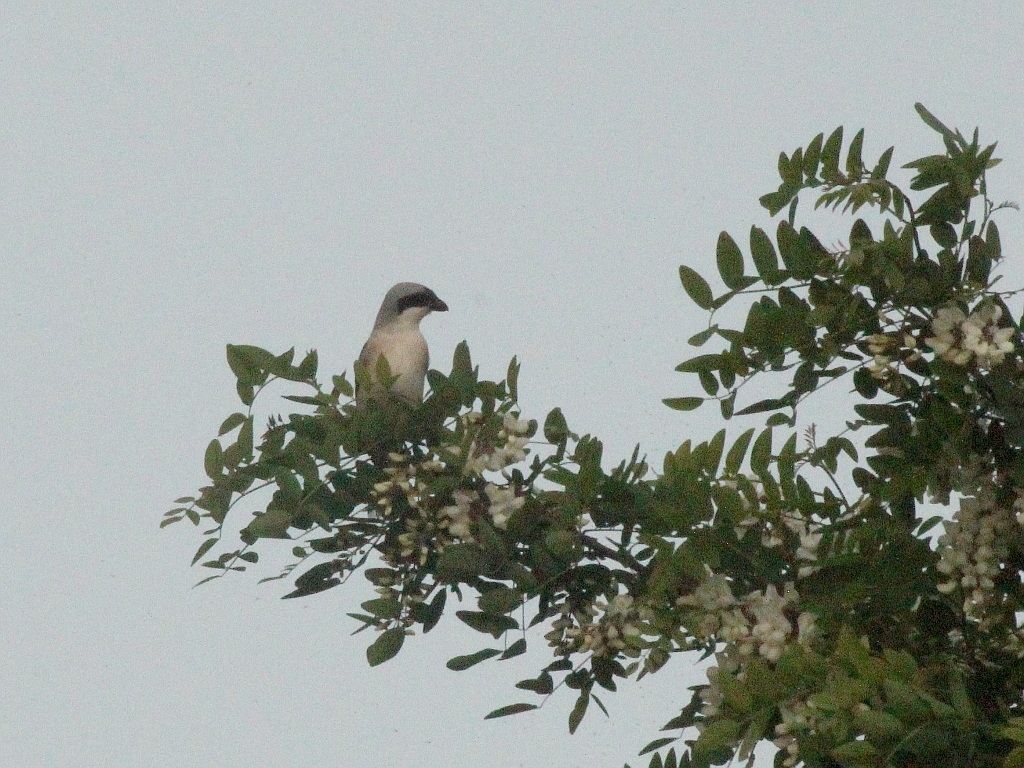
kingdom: Animalia
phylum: Chordata
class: Aves
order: Passeriformes
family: Laniidae
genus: Lanius
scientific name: Lanius minor
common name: Lesser grey shrike
